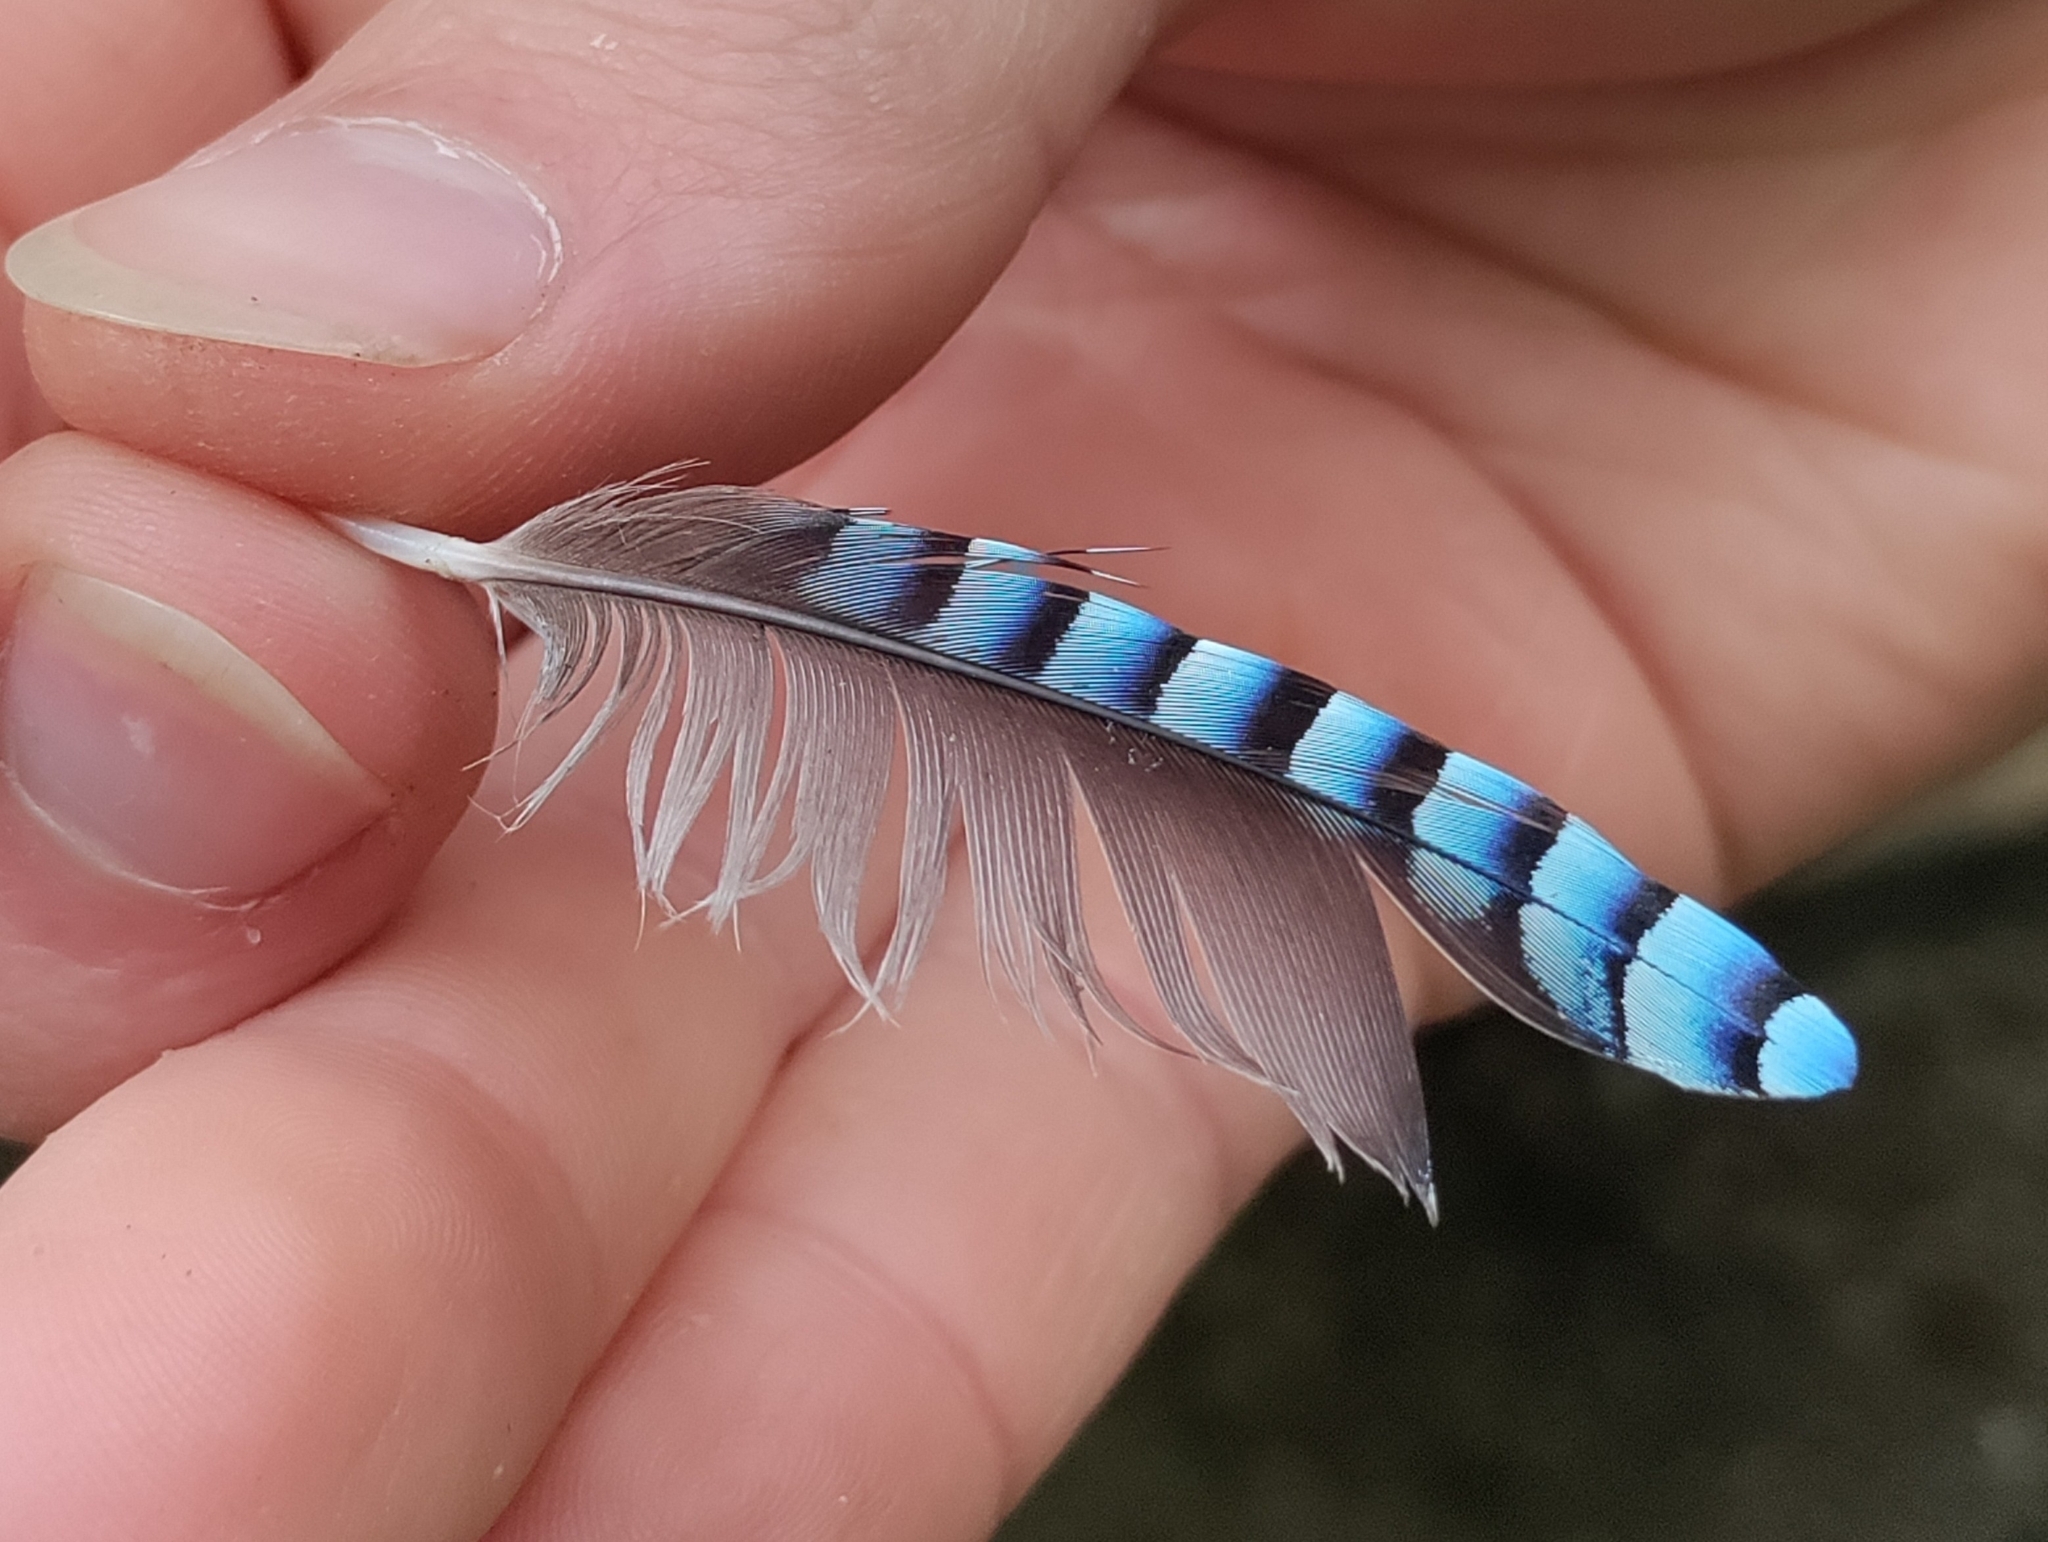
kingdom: Animalia
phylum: Chordata
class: Aves
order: Passeriformes
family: Corvidae
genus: Garrulus
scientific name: Garrulus glandarius
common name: Eurasian jay
